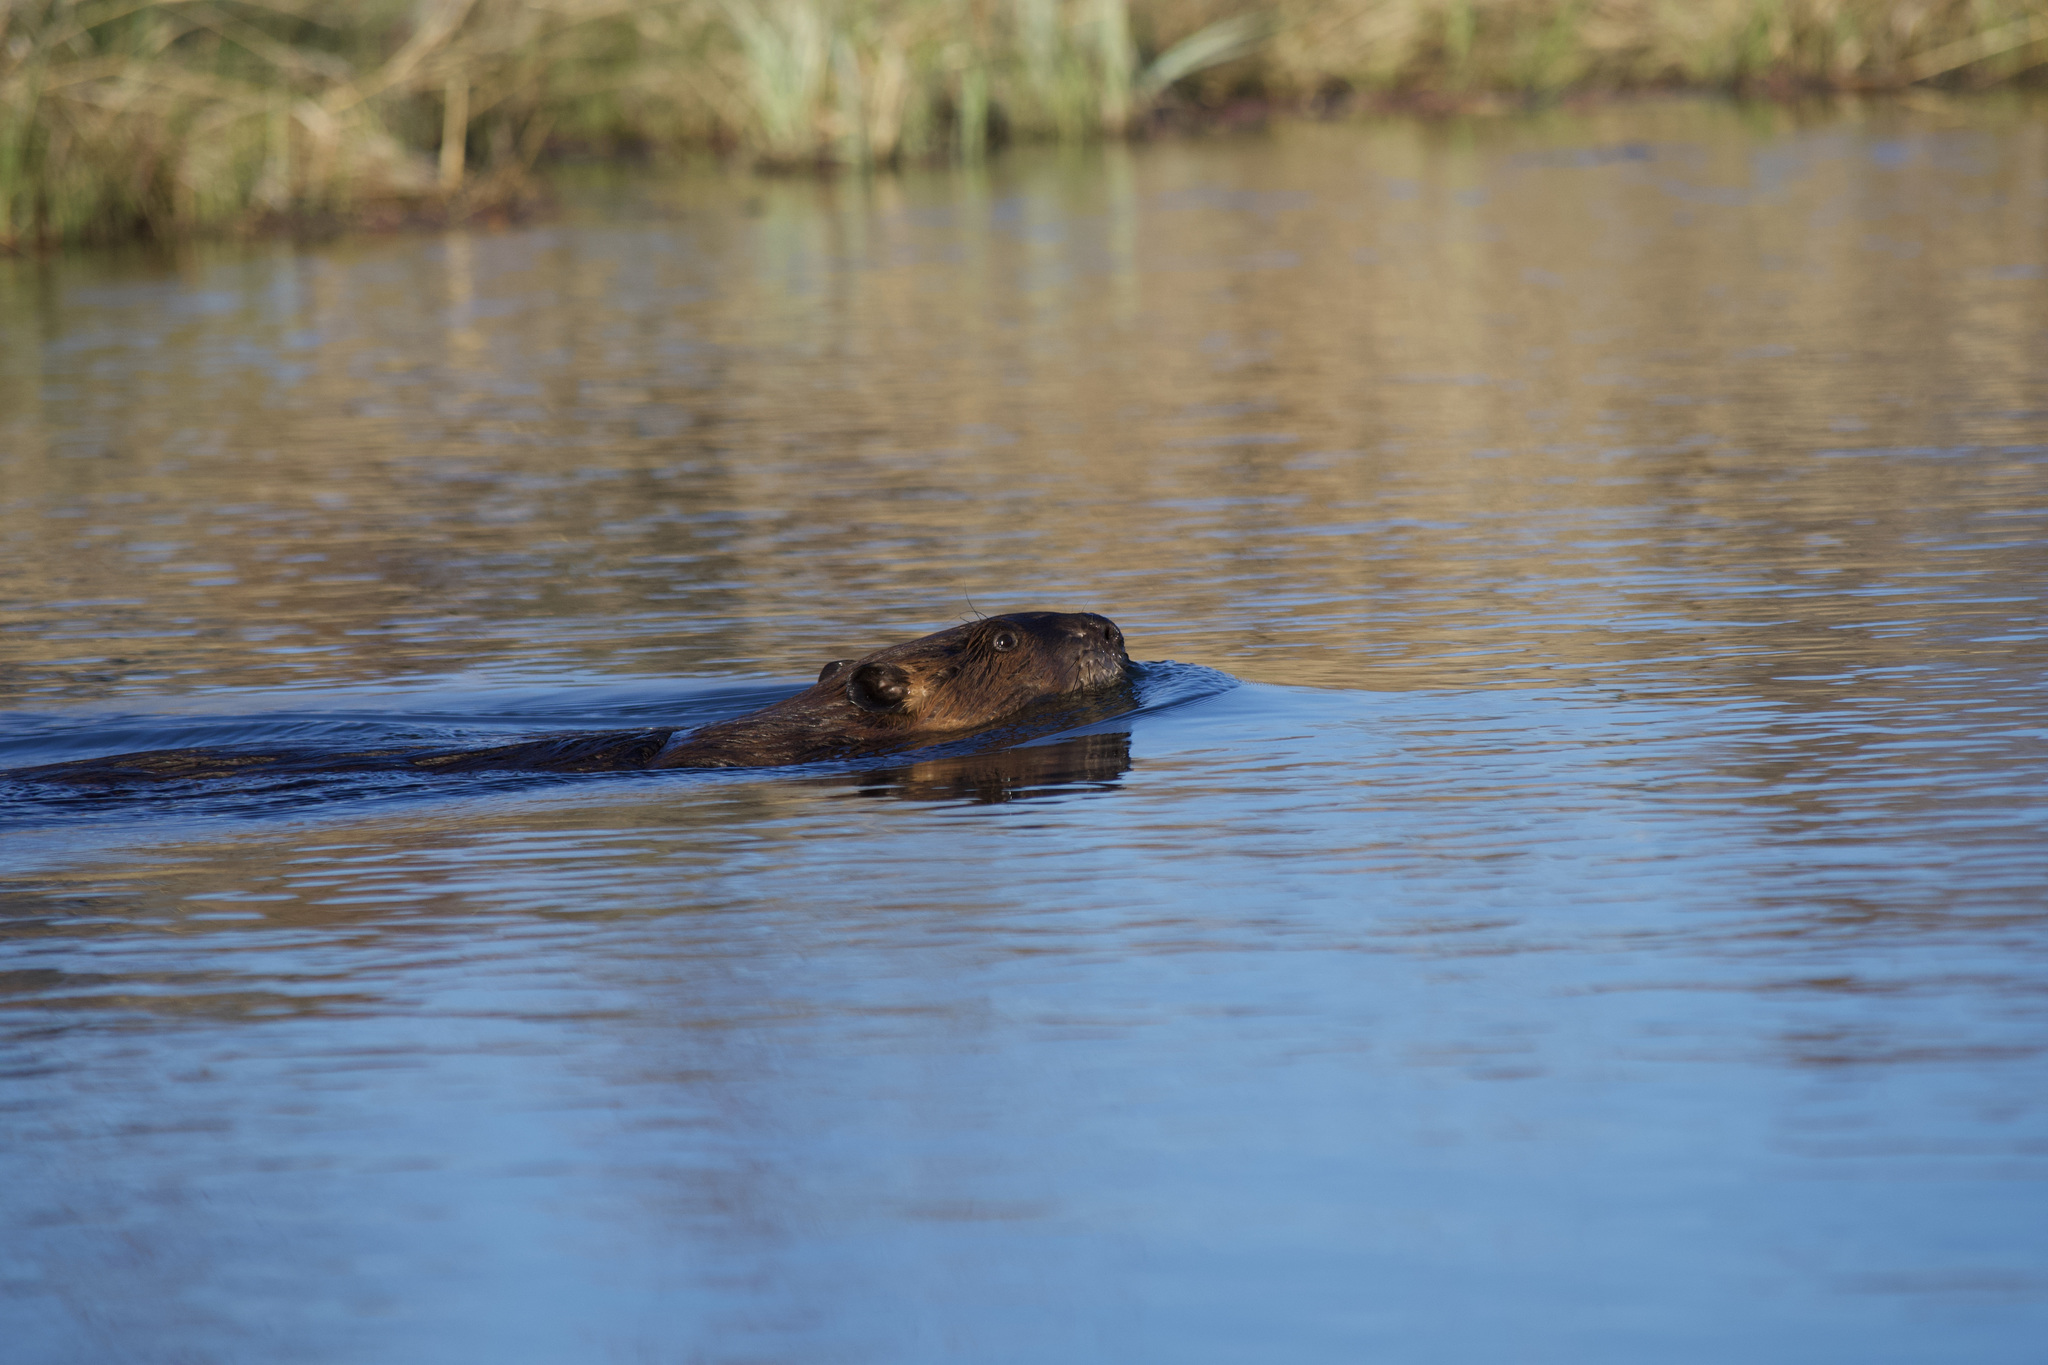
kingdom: Animalia
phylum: Chordata
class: Mammalia
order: Rodentia
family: Castoridae
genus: Castor
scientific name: Castor canadensis
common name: American beaver
